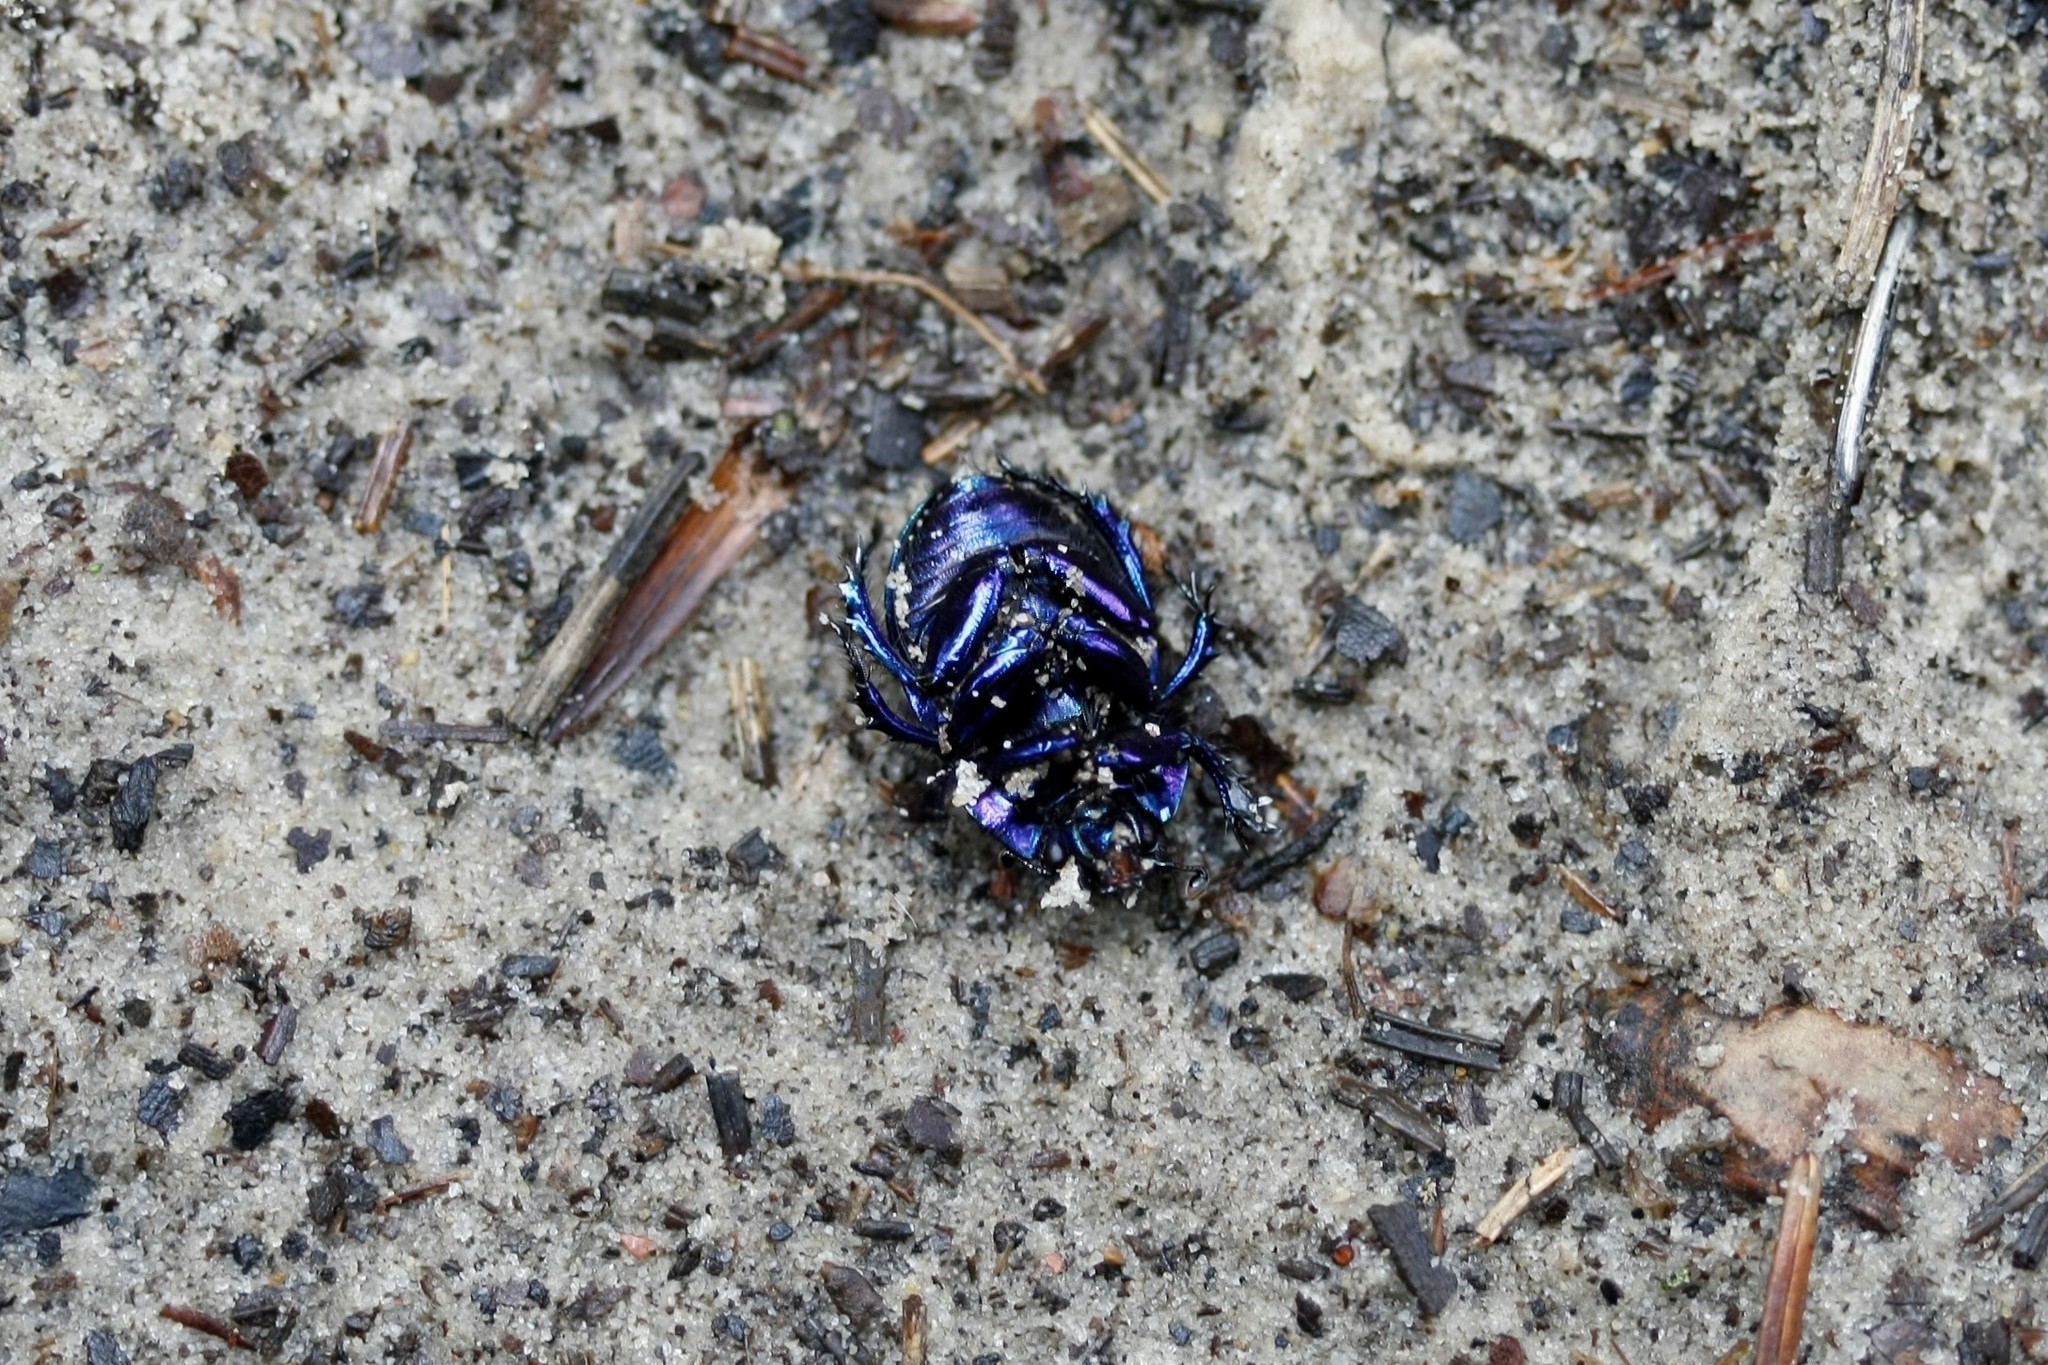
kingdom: Animalia
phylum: Arthropoda
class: Insecta
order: Coleoptera
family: Geotrupidae
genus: Anoplotrupes
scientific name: Anoplotrupes stercorosus
